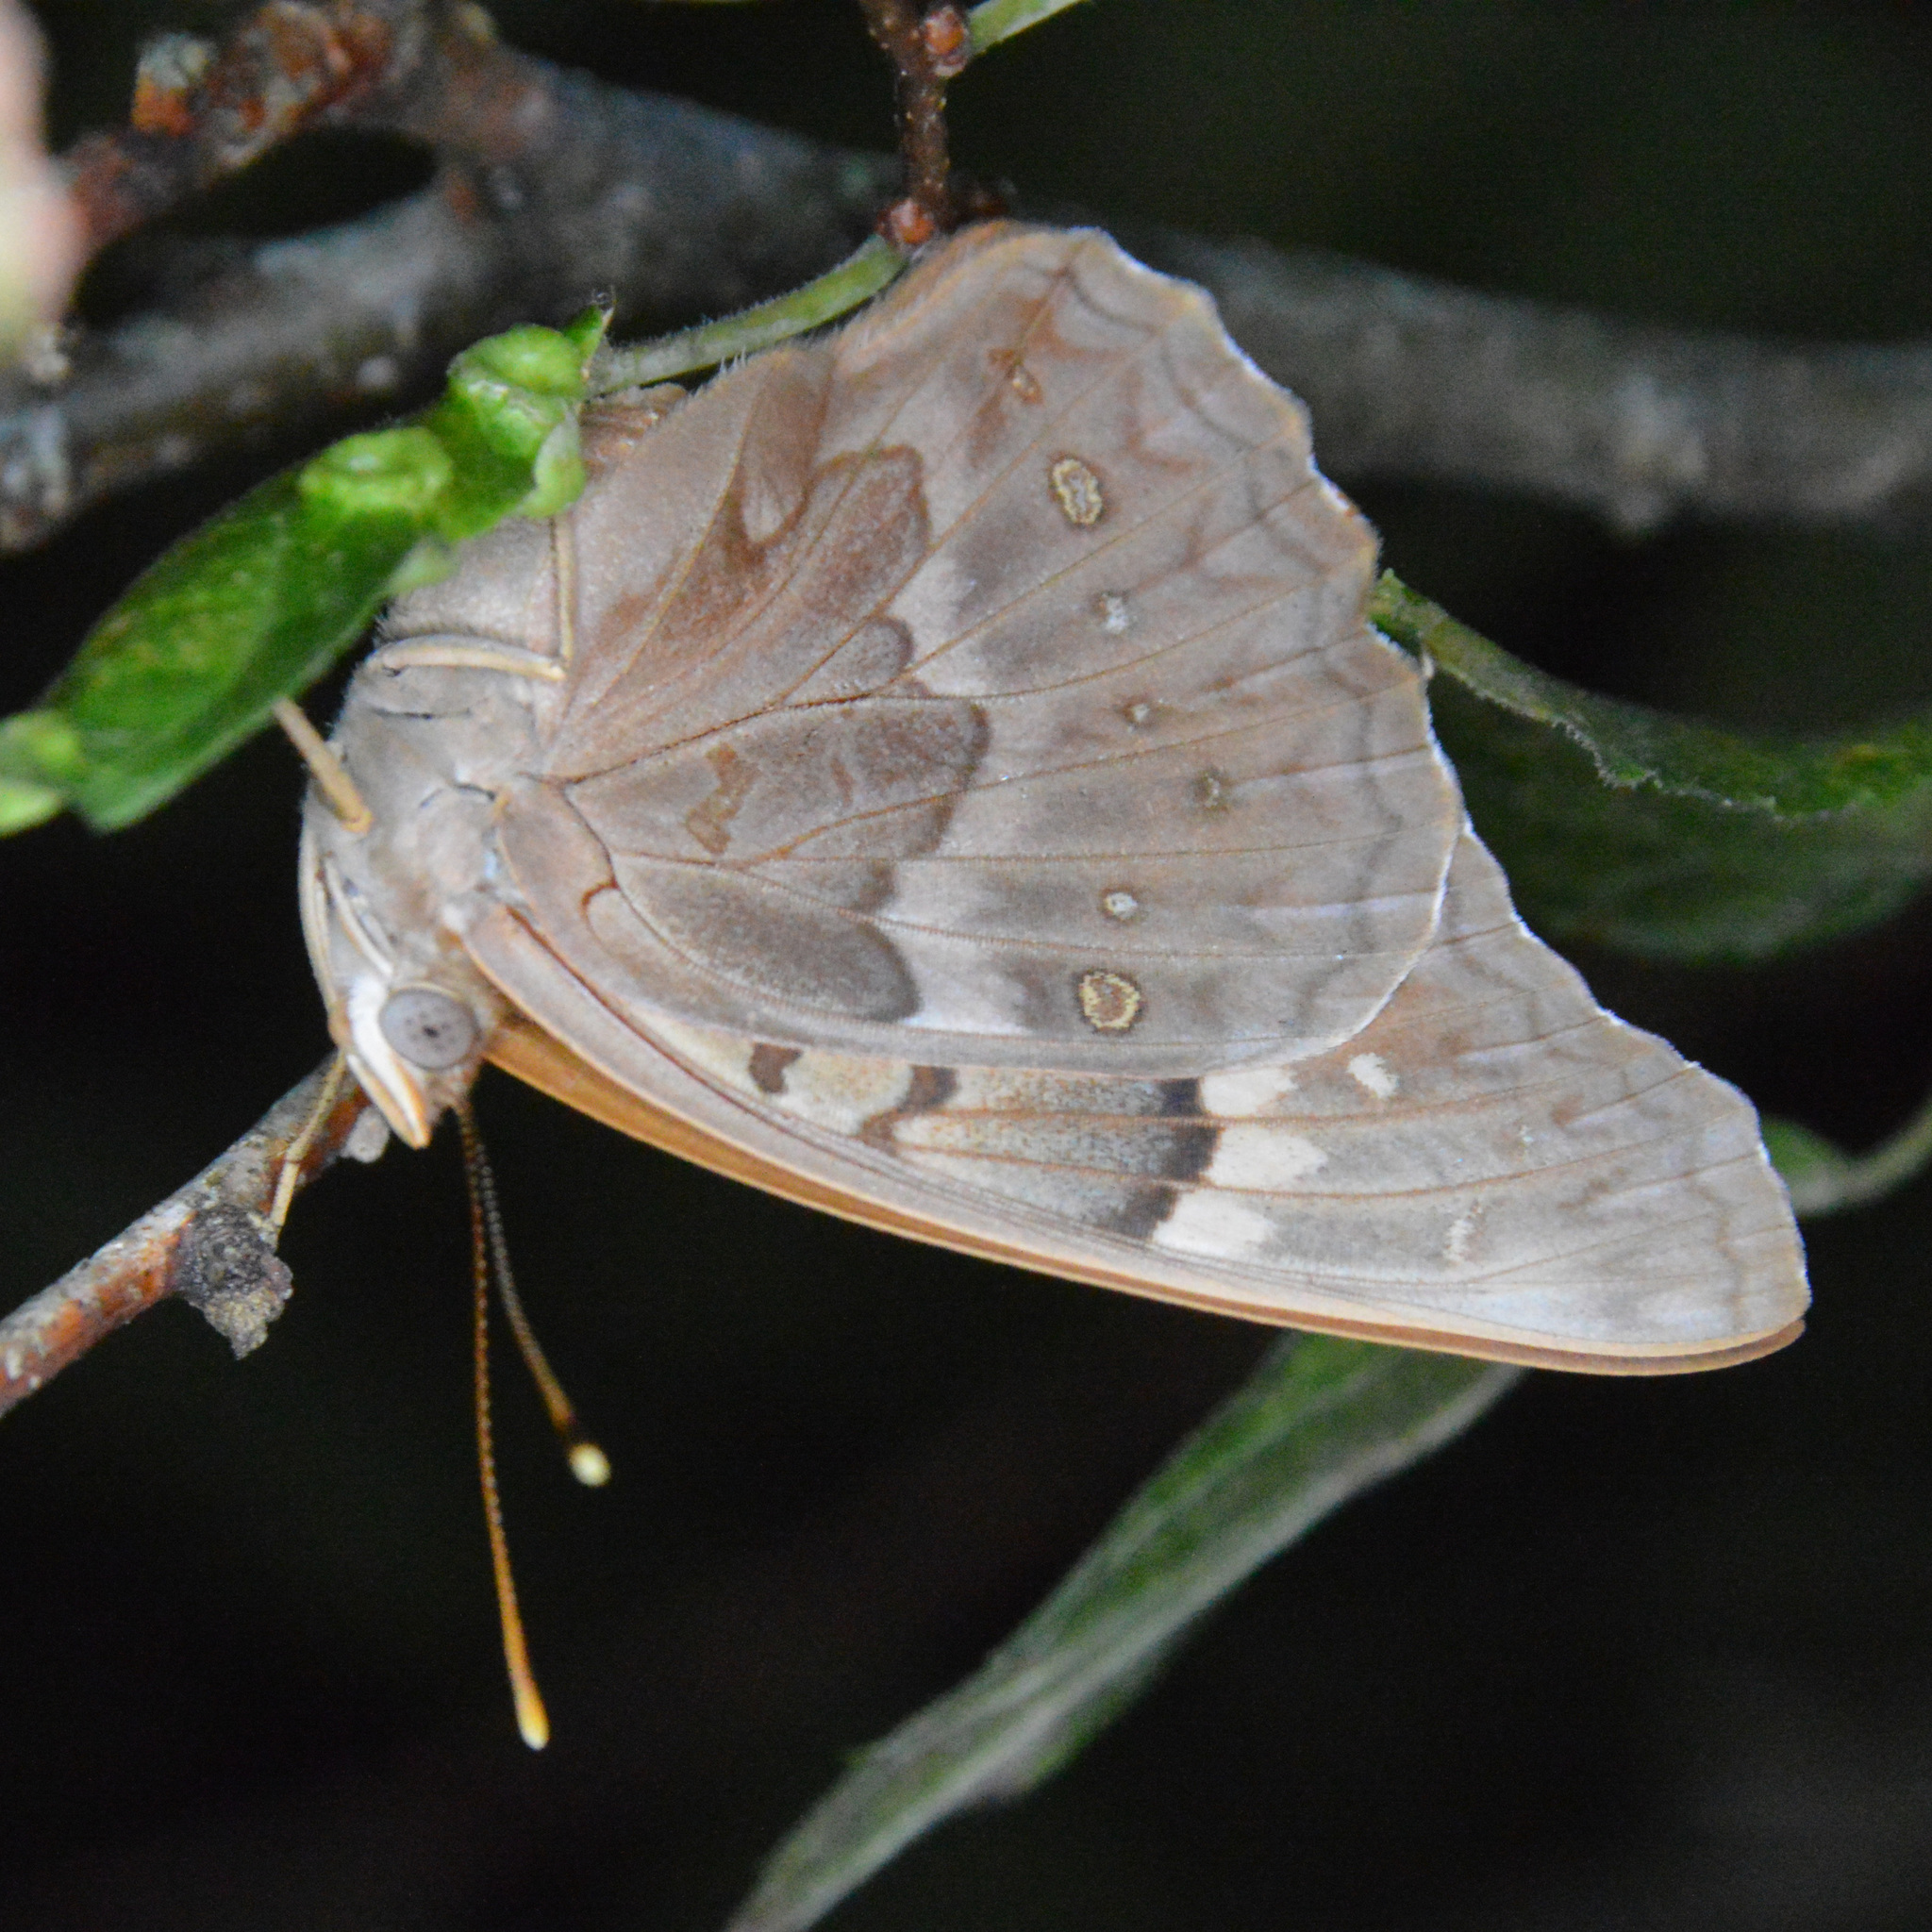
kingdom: Animalia
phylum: Arthropoda
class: Insecta
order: Lepidoptera
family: Nymphalidae
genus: Asterocampa
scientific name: Asterocampa clyton
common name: Tawny emperor
